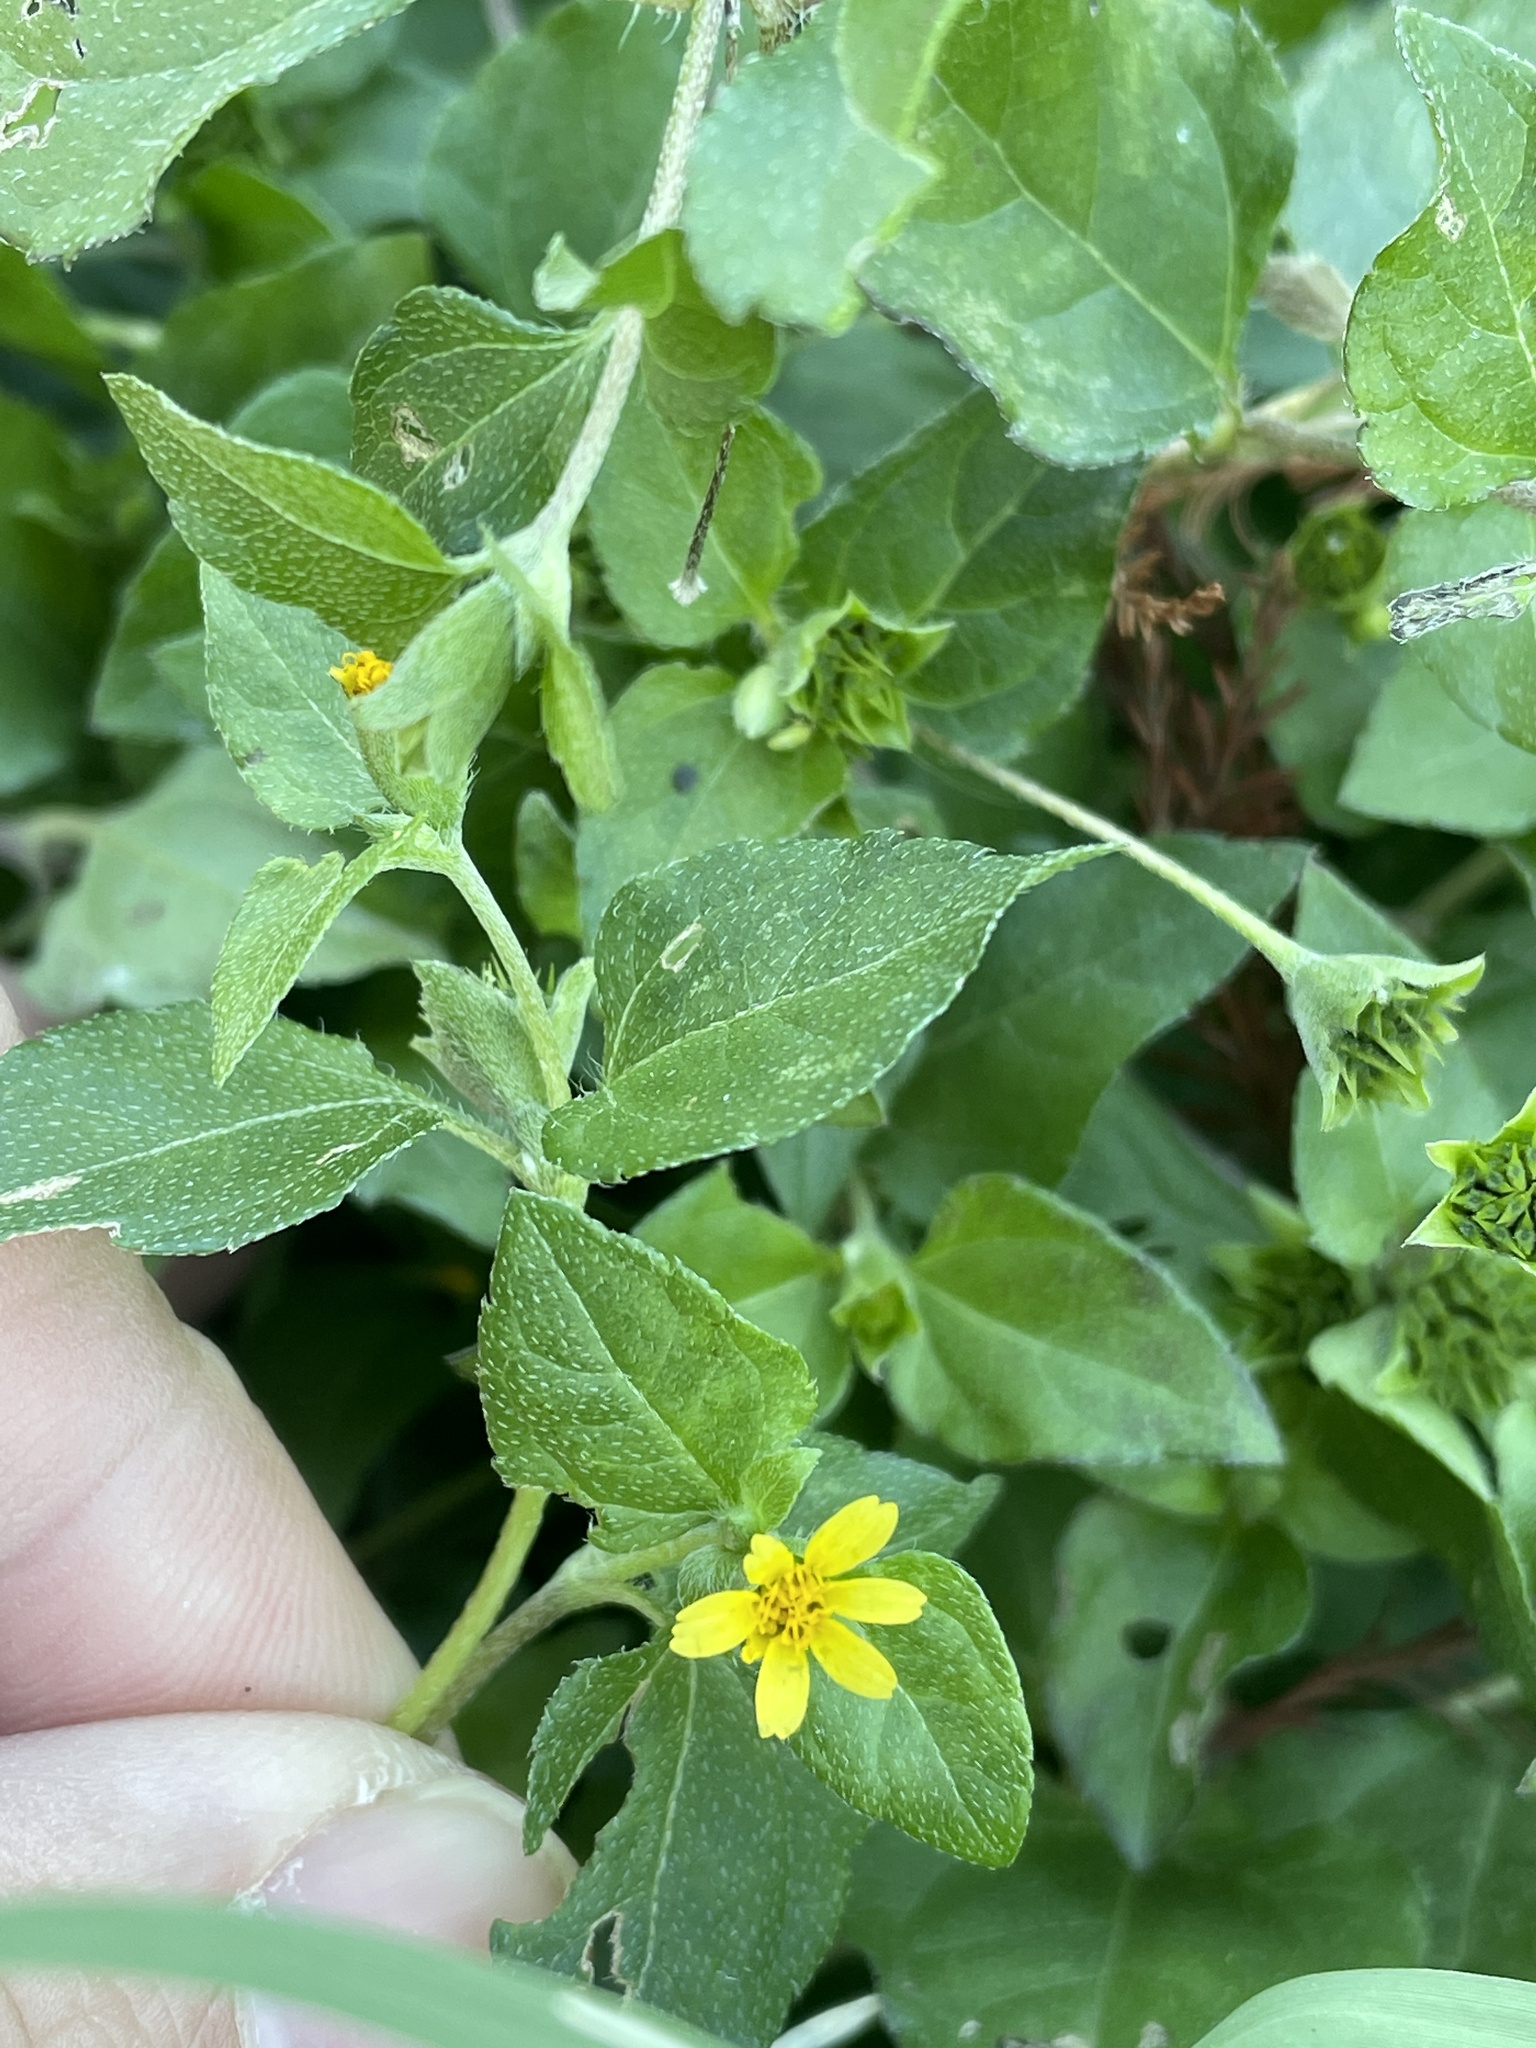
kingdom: Plantae
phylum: Tracheophyta
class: Magnoliopsida
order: Asterales
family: Asteraceae
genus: Calyptocarpus
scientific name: Calyptocarpus vialis
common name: Straggler daisy
